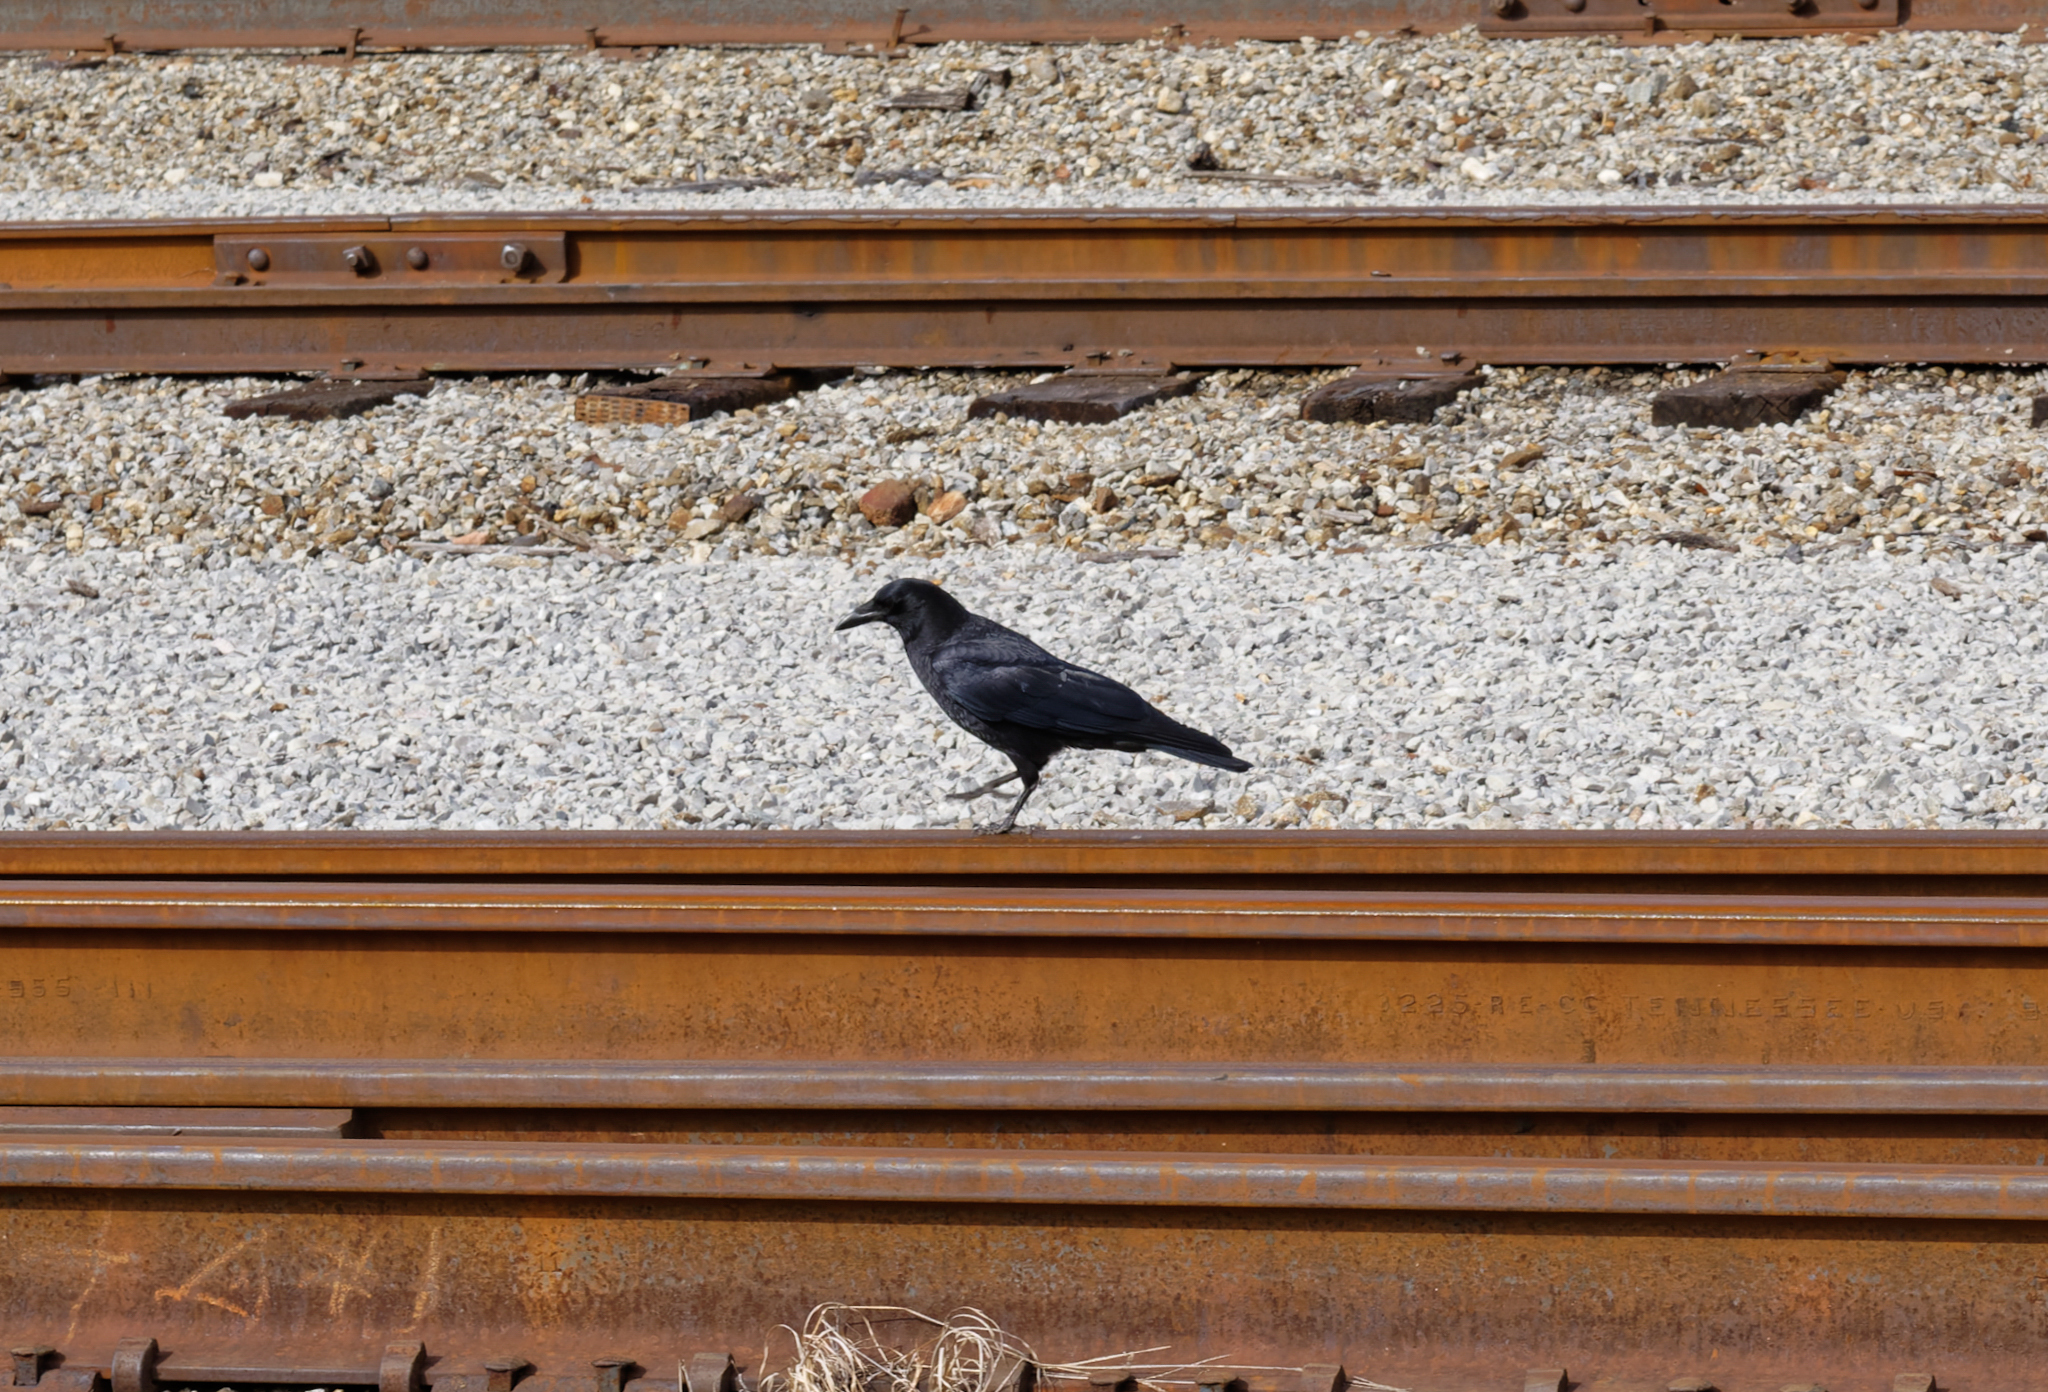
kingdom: Animalia
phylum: Chordata
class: Aves
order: Passeriformes
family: Corvidae
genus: Corvus
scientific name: Corvus brachyrhynchos
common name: American crow
